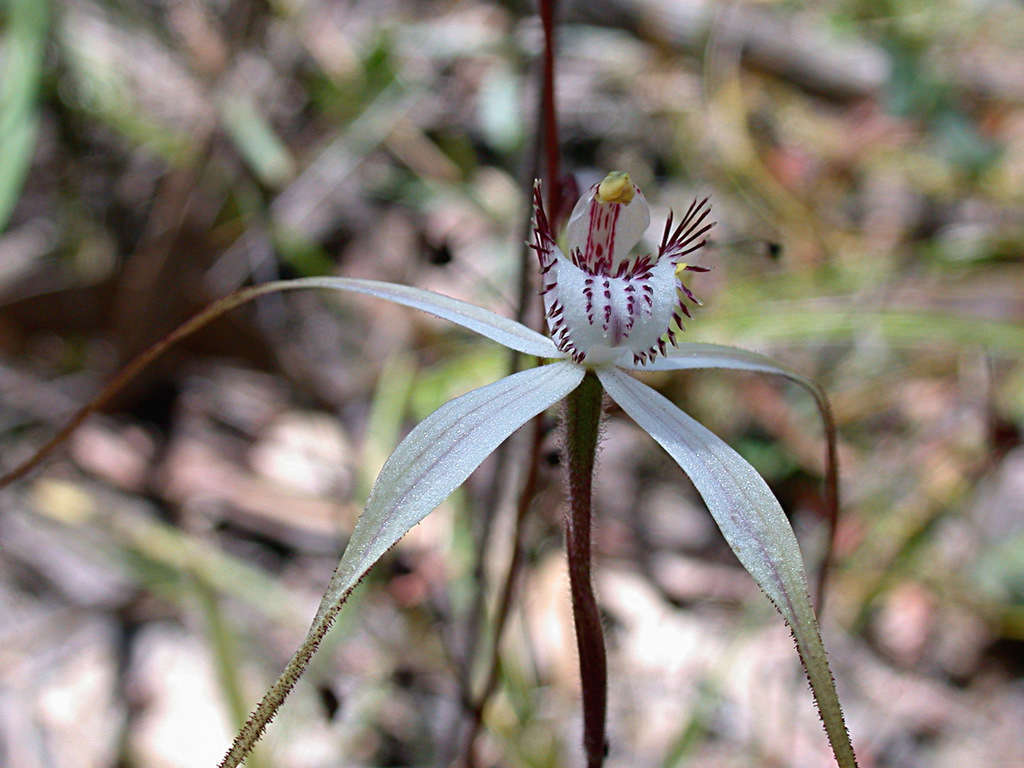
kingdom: Plantae
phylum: Tracheophyta
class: Liliopsida
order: Asparagales
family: Orchidaceae
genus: Caladenia
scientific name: Caladenia venusta
